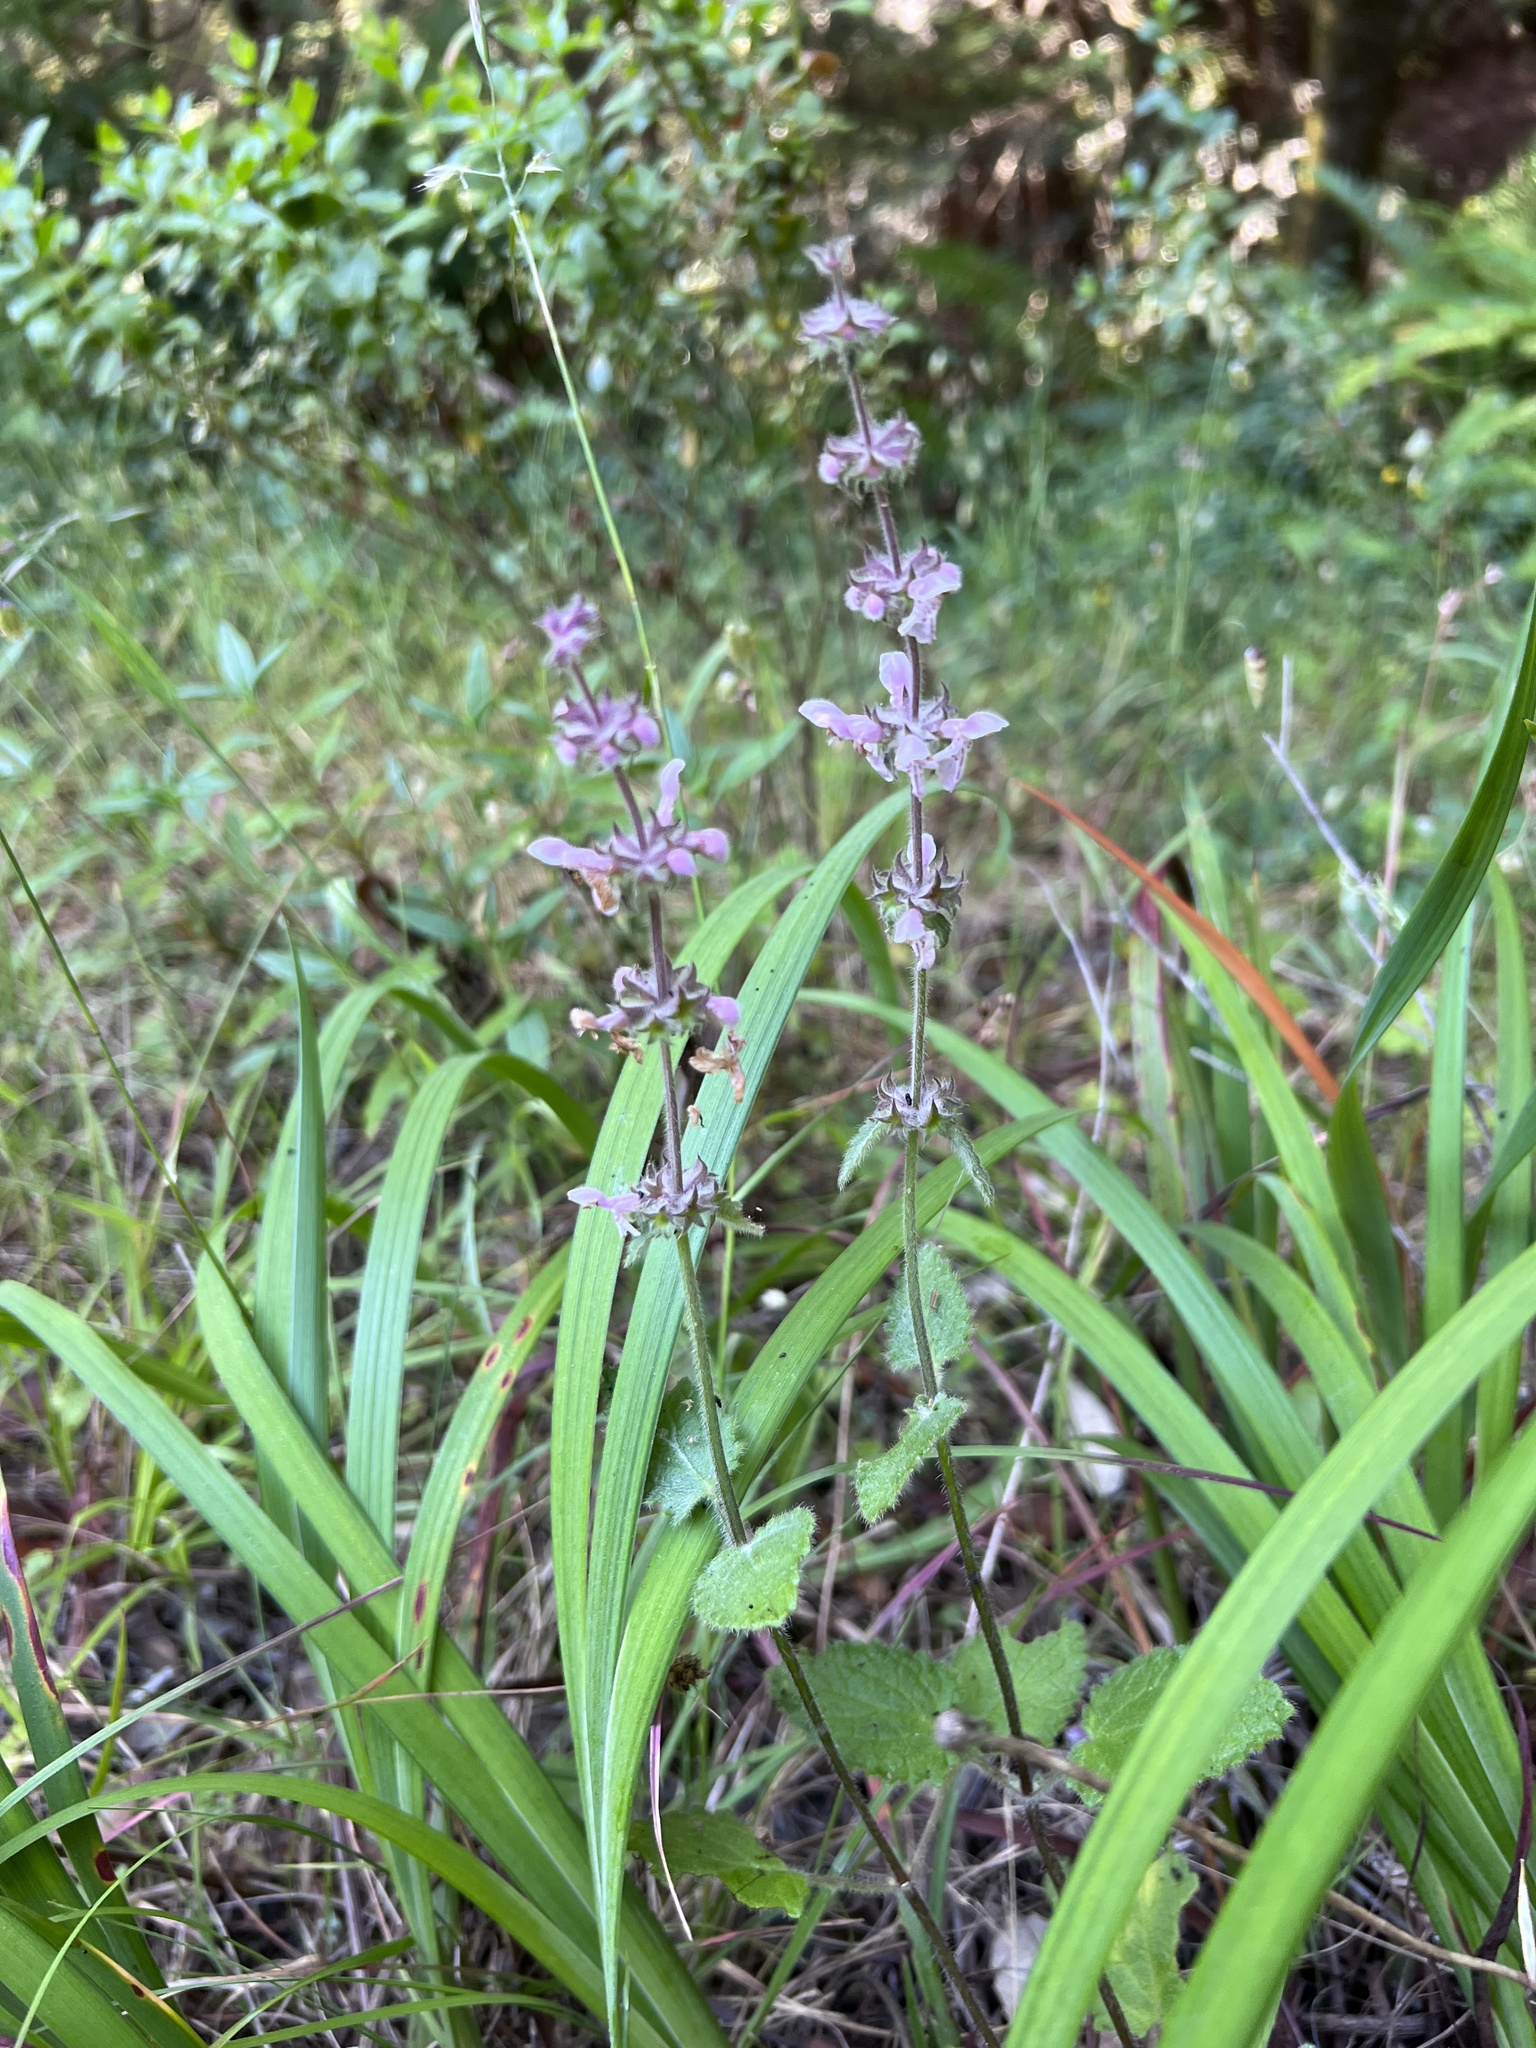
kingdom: Plantae
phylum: Tracheophyta
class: Magnoliopsida
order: Lamiales
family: Lamiaceae
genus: Stachys
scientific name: Stachys rigida
